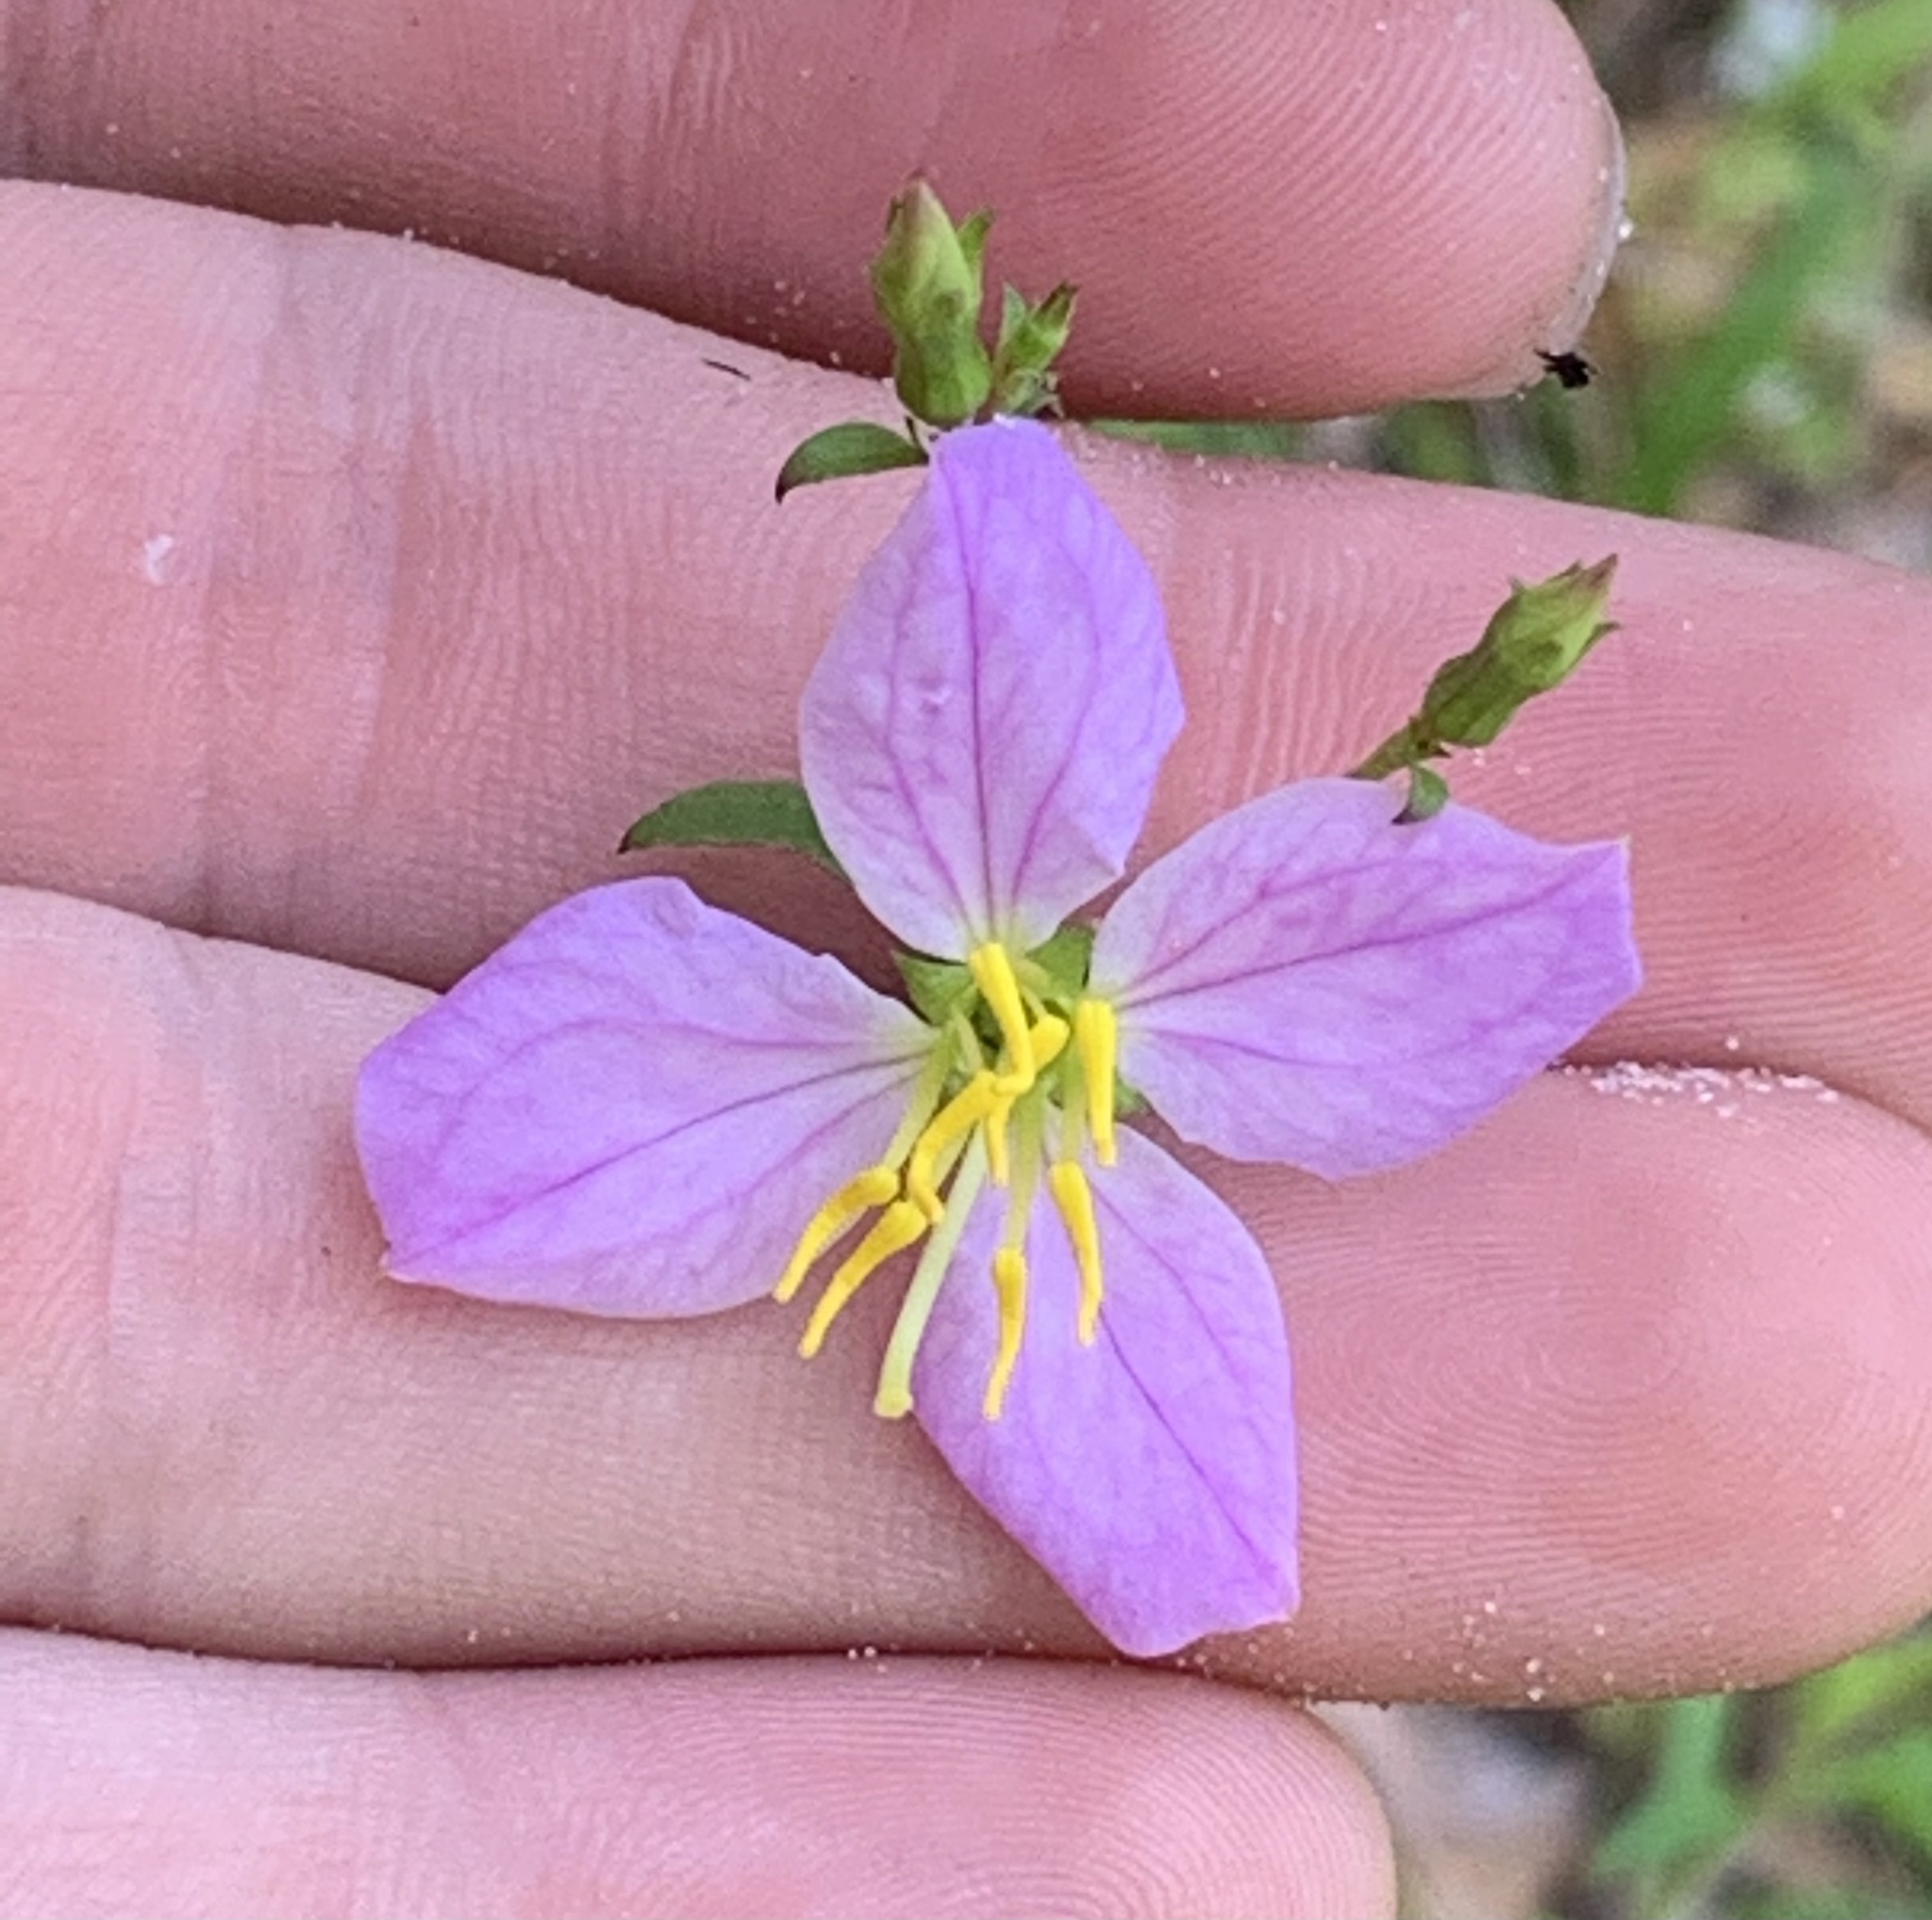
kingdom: Plantae
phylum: Tracheophyta
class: Magnoliopsida
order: Myrtales
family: Melastomataceae
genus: Rhexia
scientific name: Rhexia mariana
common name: Dull meadow-pitcher
